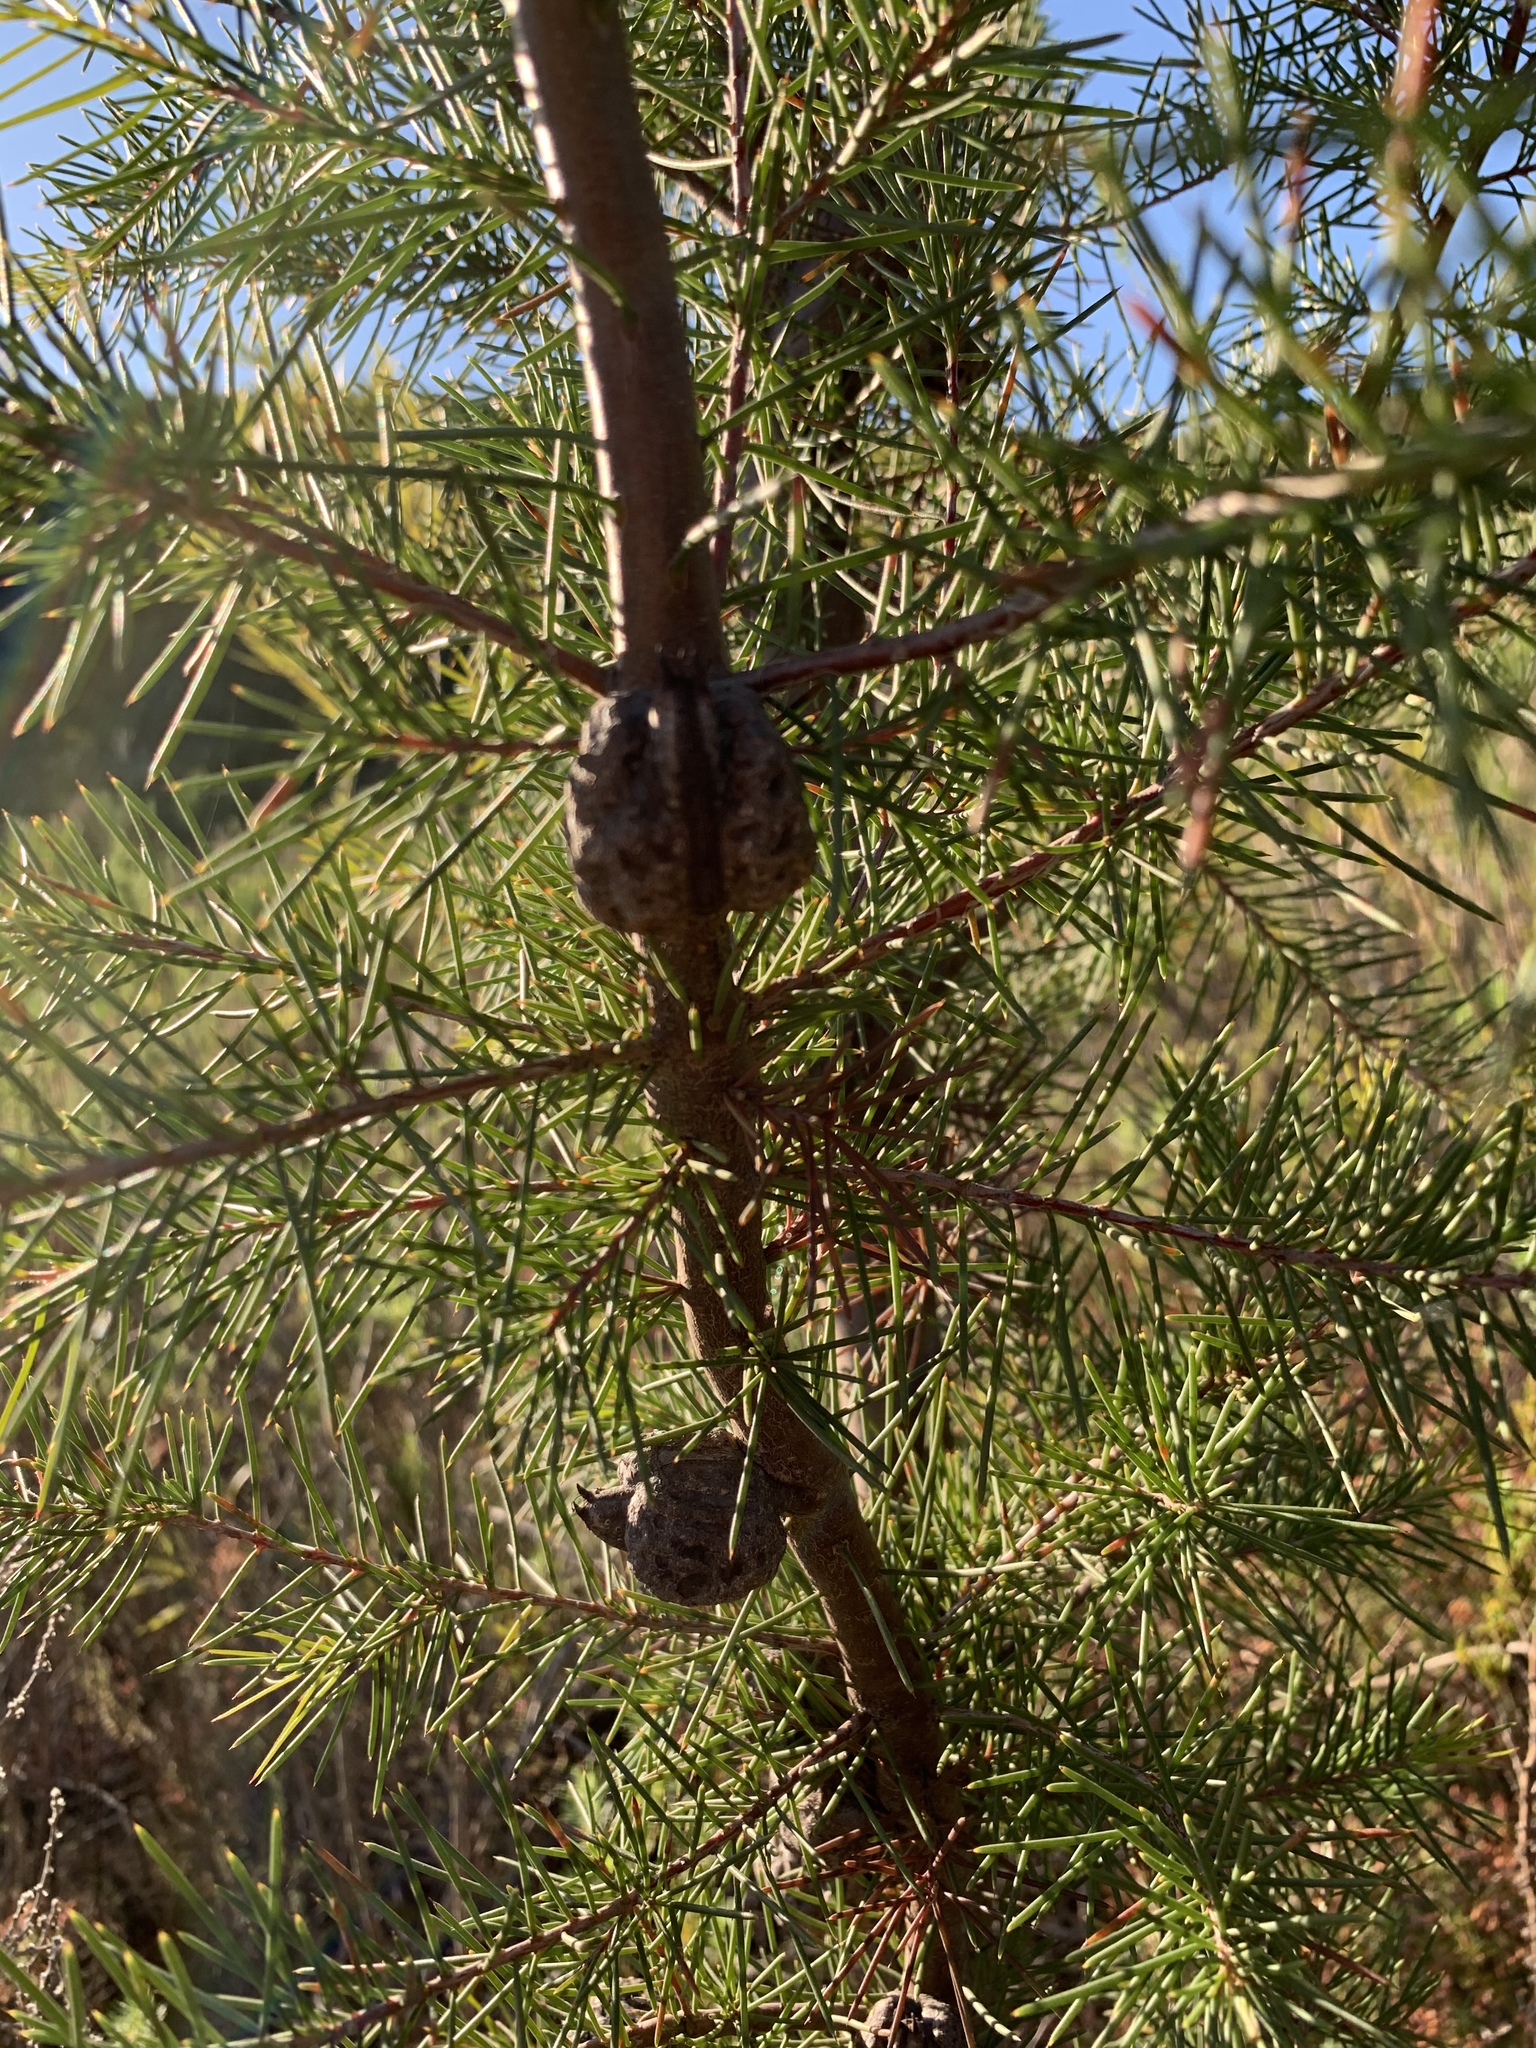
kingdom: Plantae
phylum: Tracheophyta
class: Magnoliopsida
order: Proteales
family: Proteaceae
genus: Hakea
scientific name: Hakea sericea
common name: Needle bush
